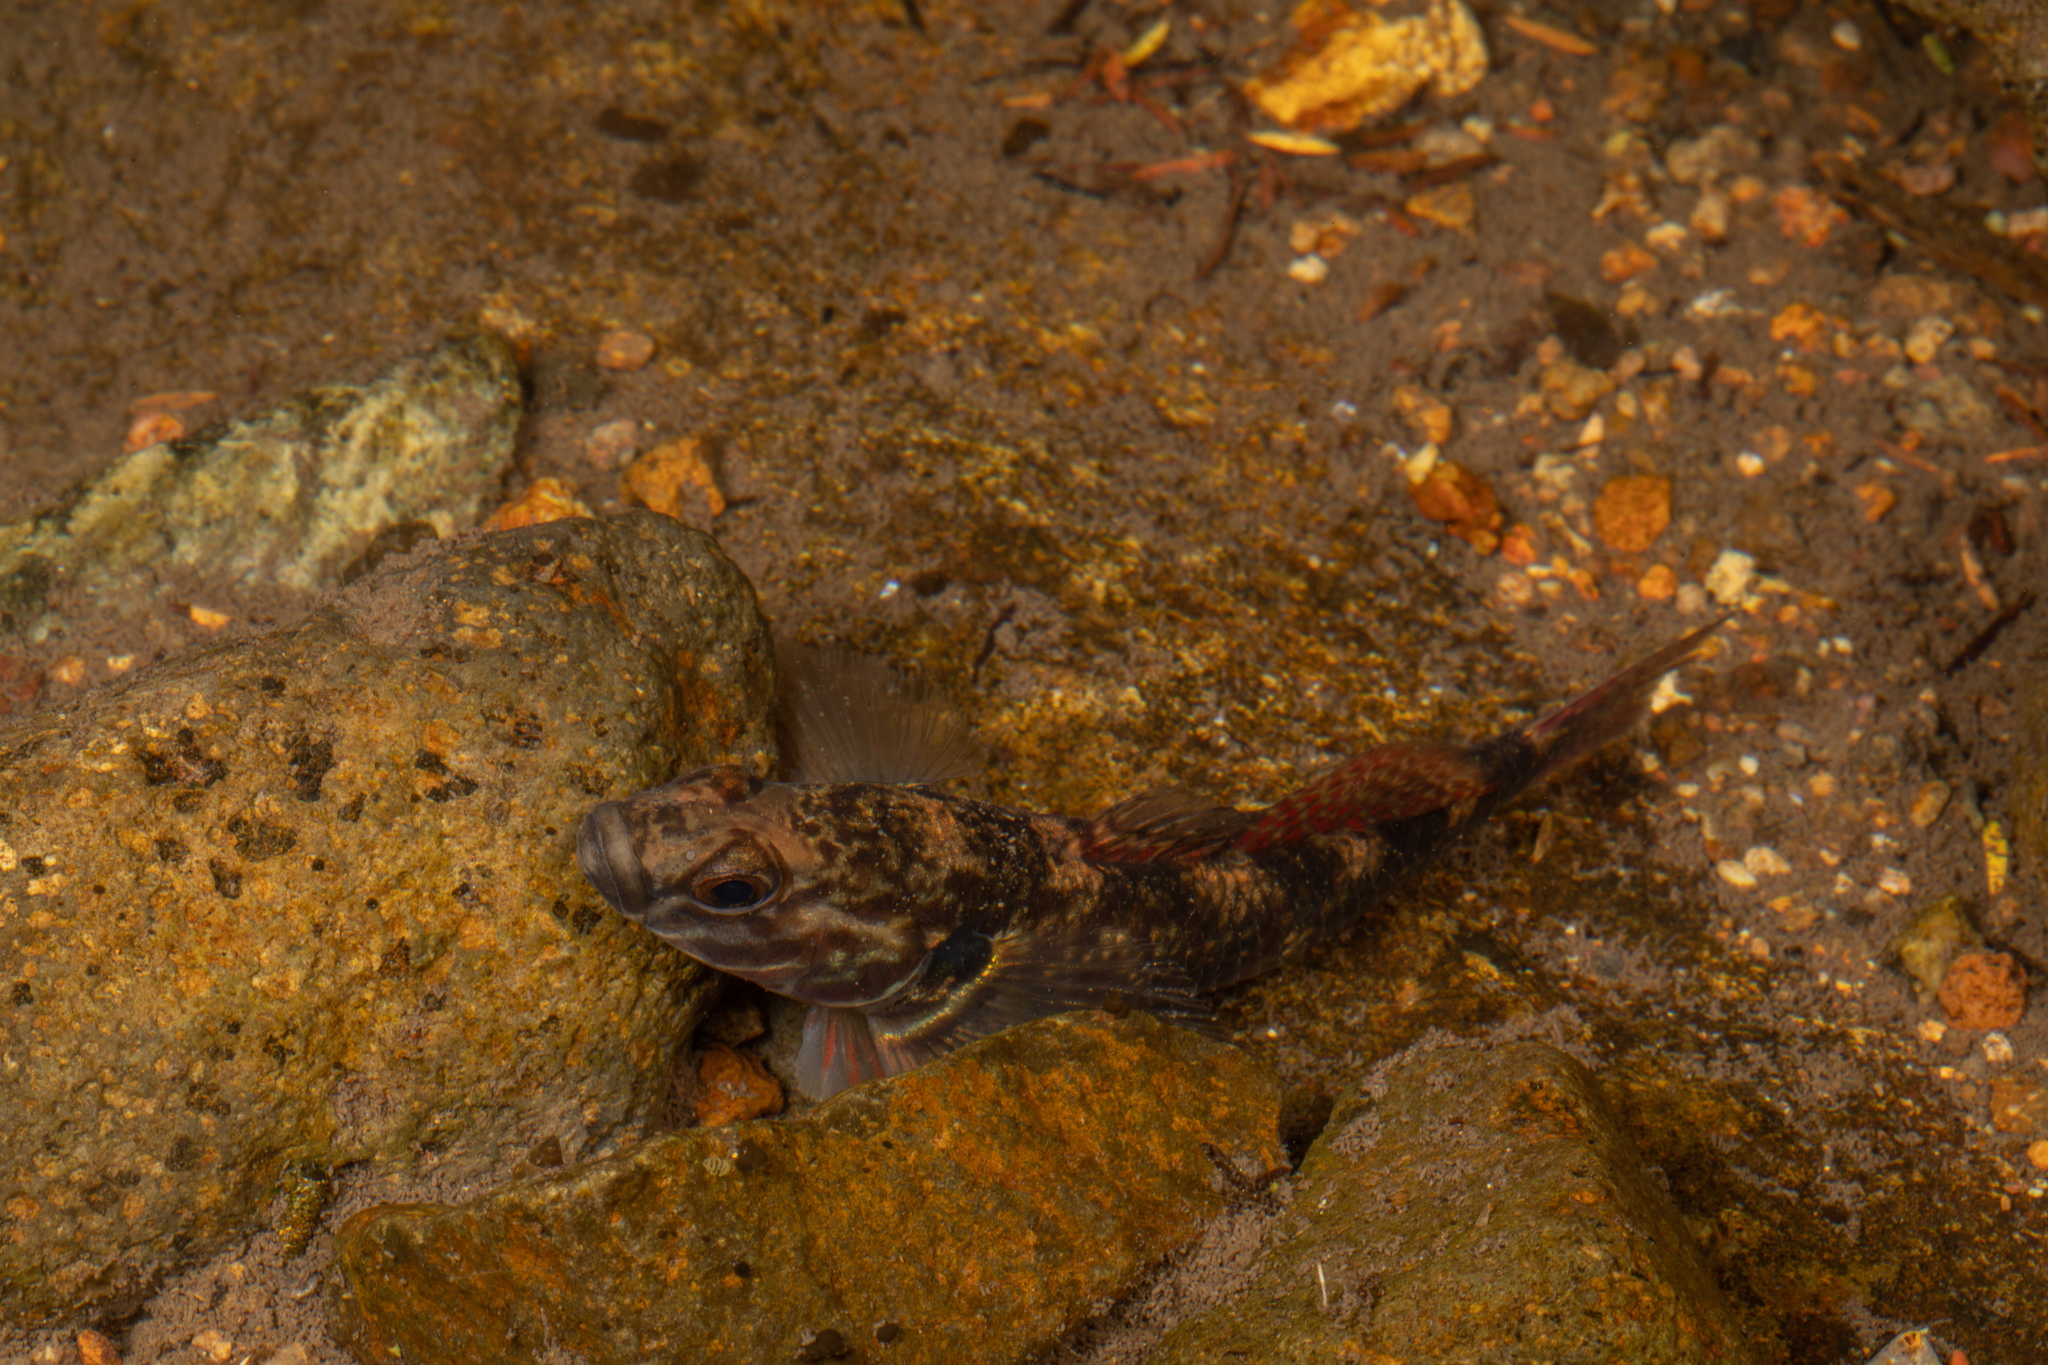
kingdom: Animalia
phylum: Chordata
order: Perciformes
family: Eleotridae
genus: Gobiomorphus
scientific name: Gobiomorphus huttoni
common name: Redfin bully
